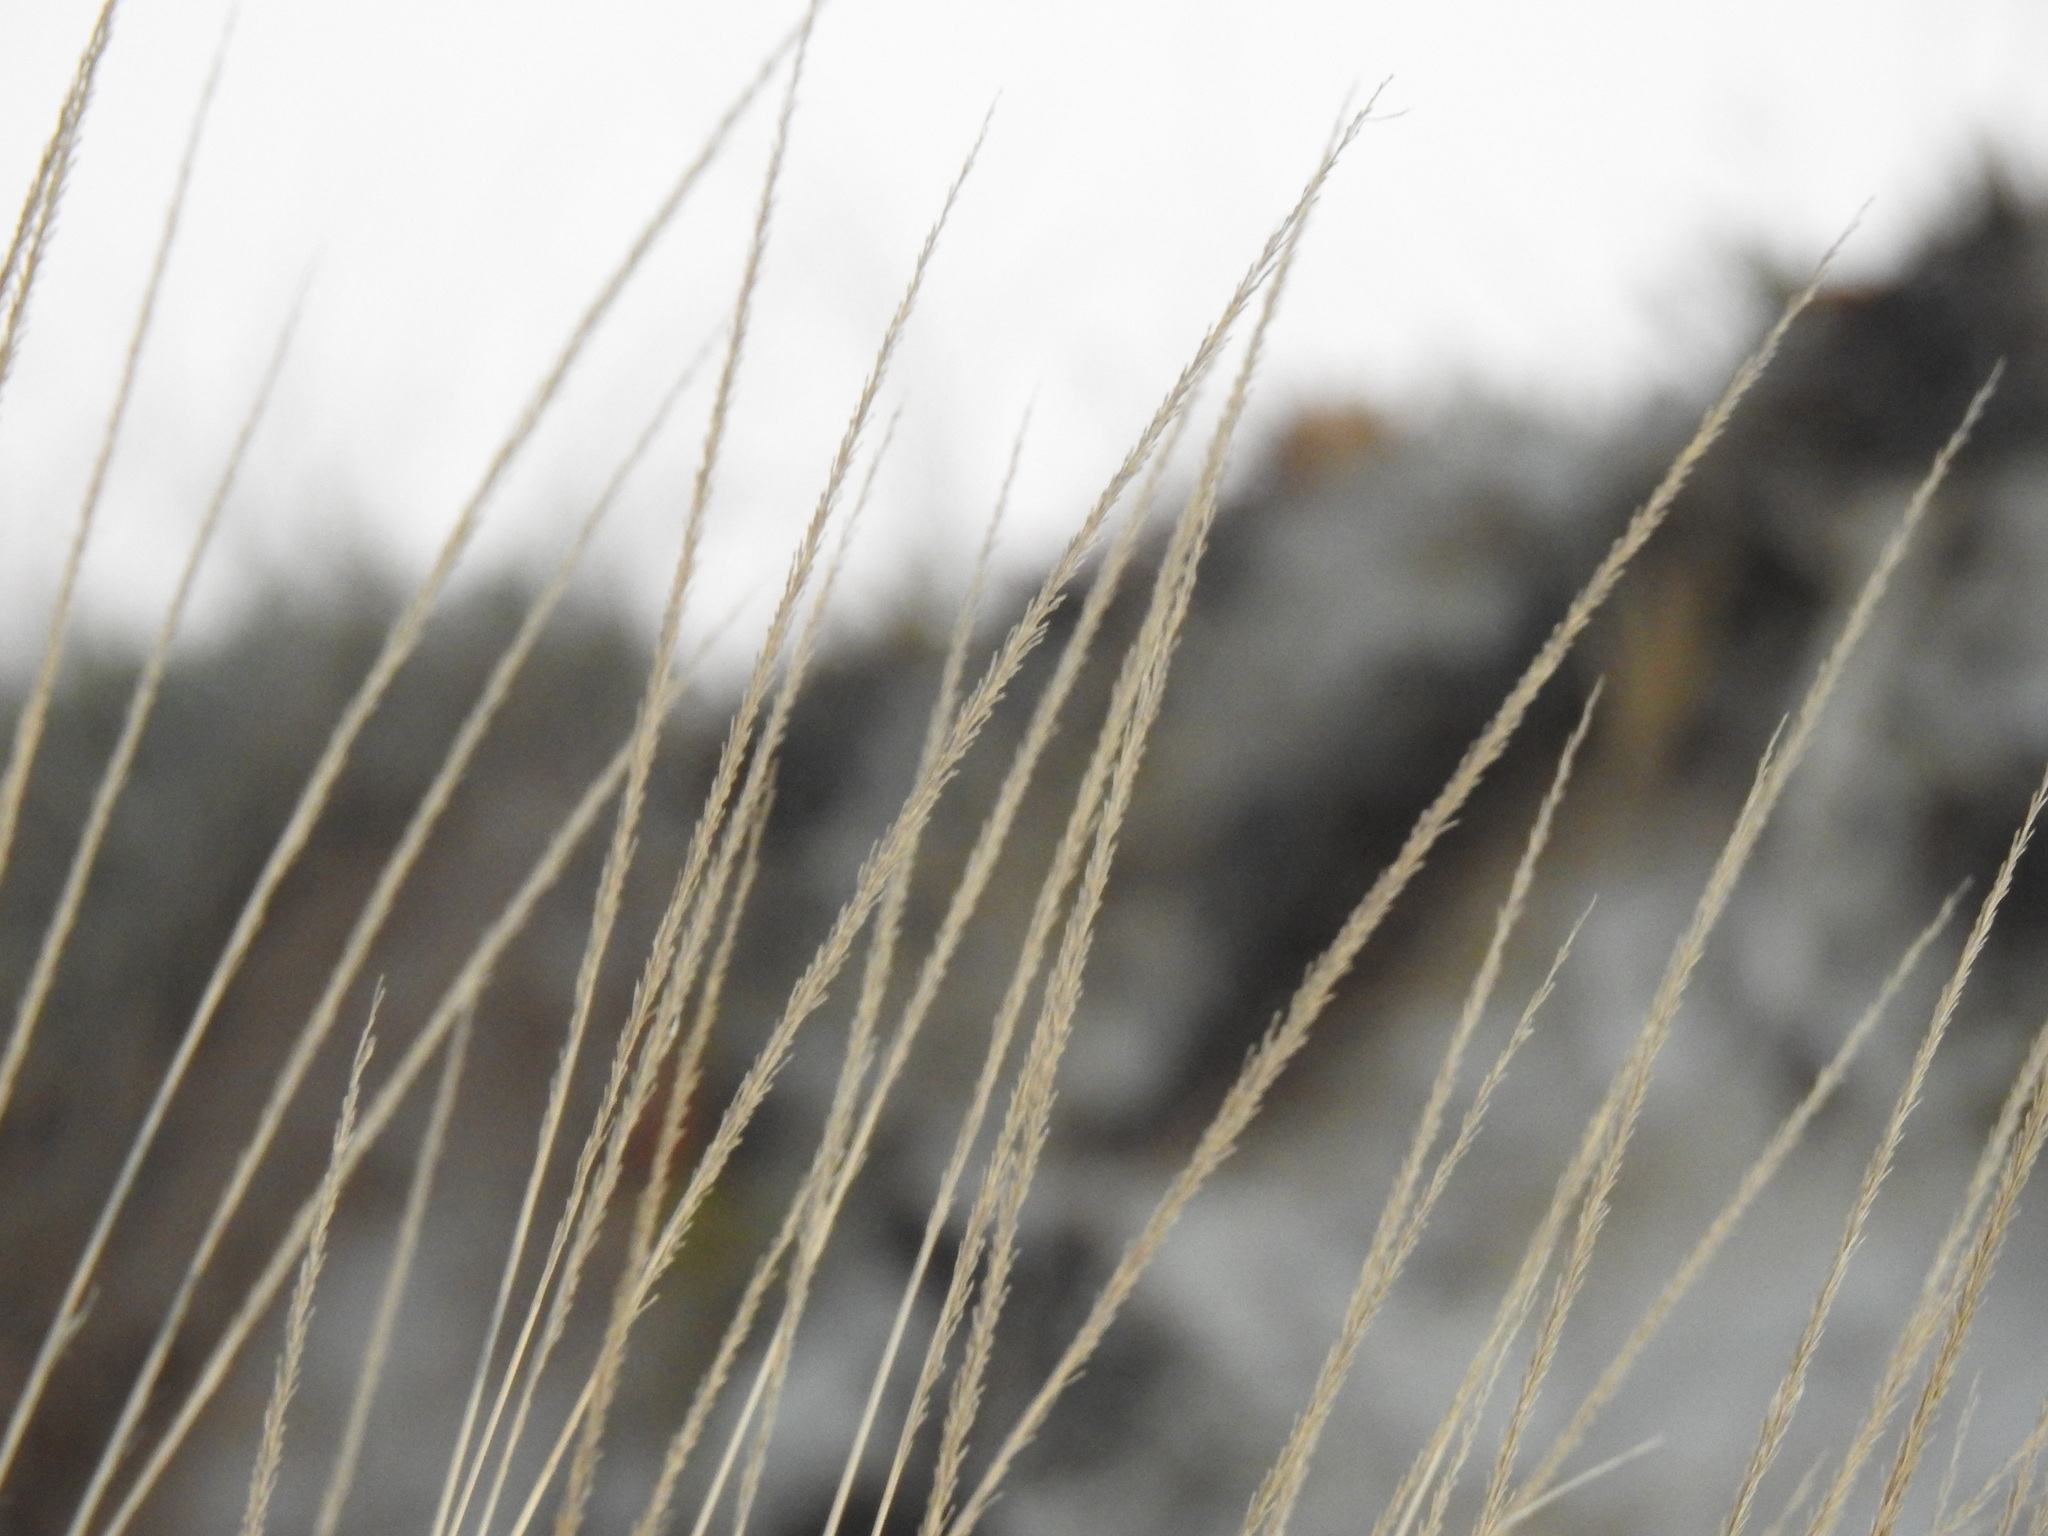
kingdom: Plantae
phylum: Tracheophyta
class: Liliopsida
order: Poales
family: Poaceae
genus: Calamagrostis
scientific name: Calamagrostis arenaria
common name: European beachgrass
